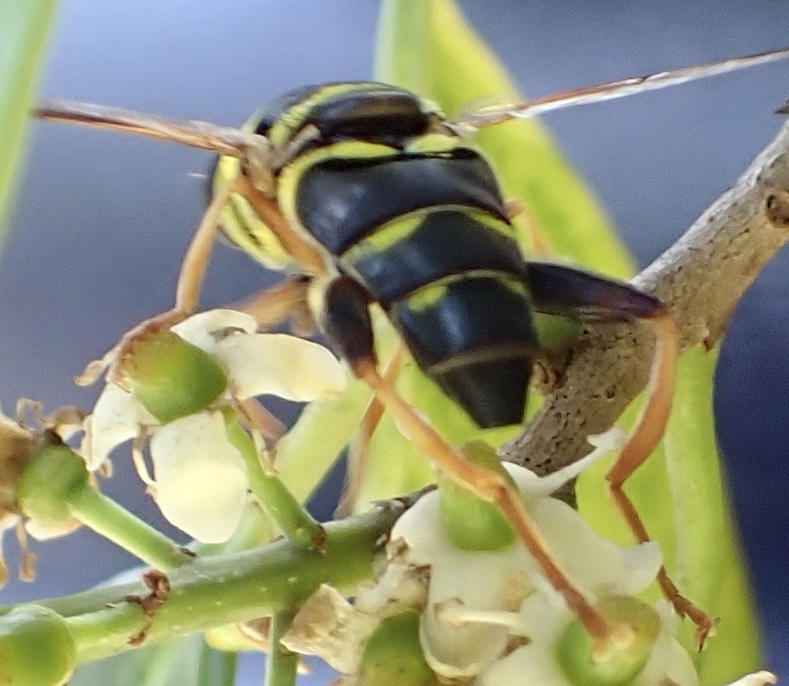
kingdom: Animalia
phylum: Arthropoda
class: Insecta
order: Diptera
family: Syrphidae
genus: Meromacrus
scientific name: Meromacrus acutus
